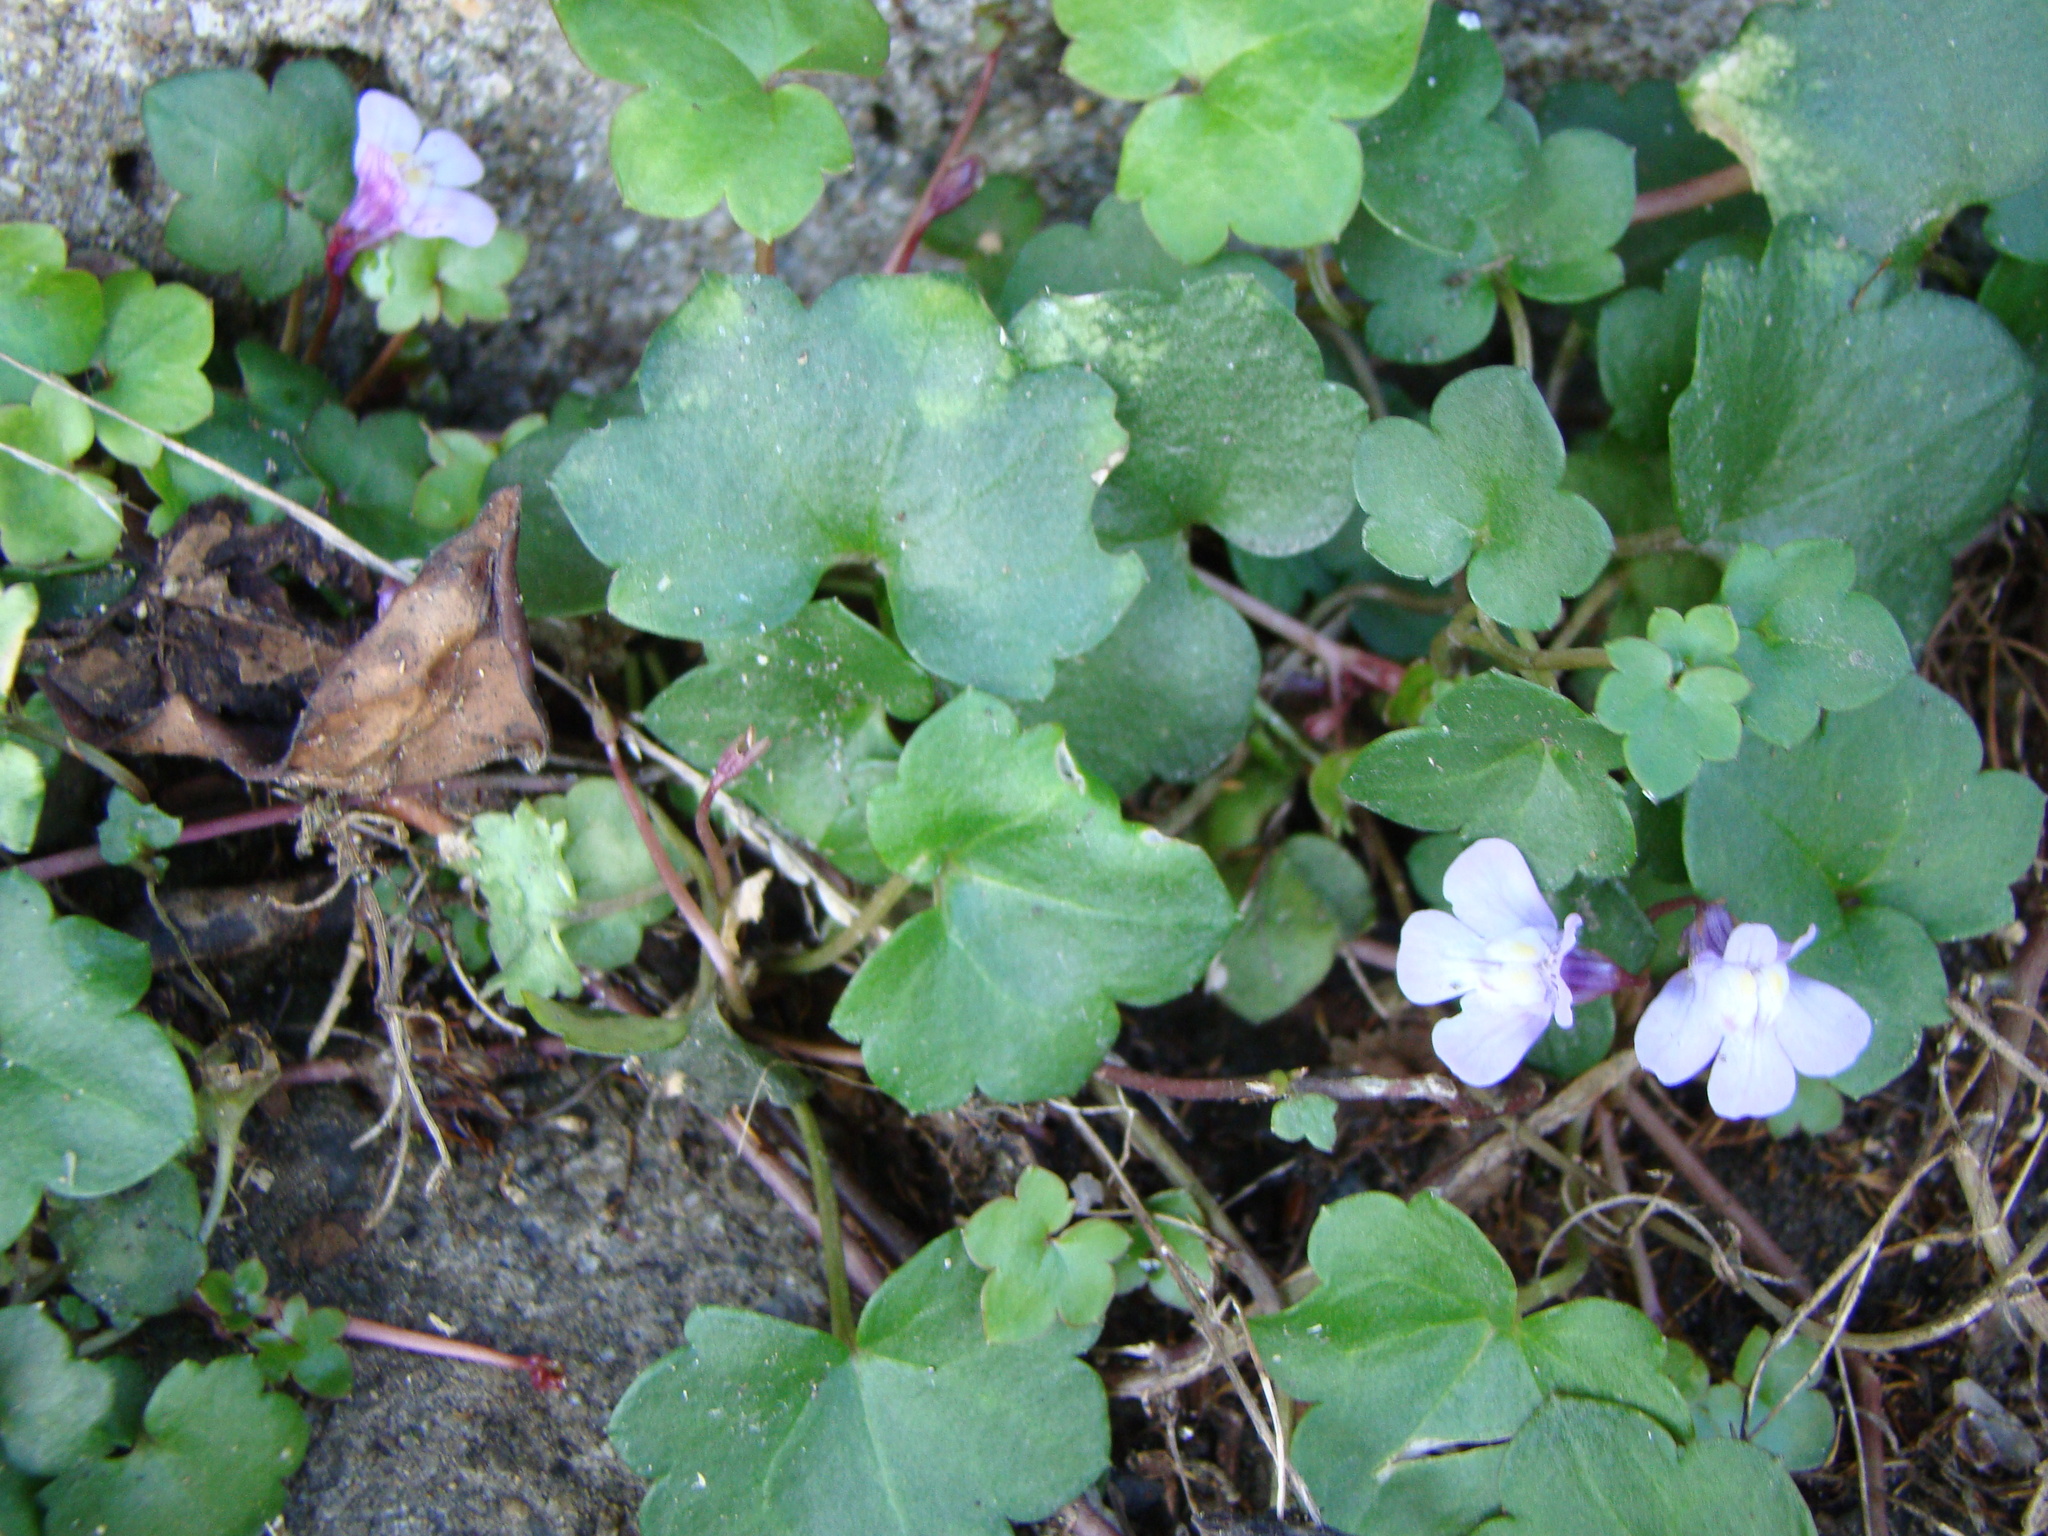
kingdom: Plantae
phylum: Tracheophyta
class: Magnoliopsida
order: Lamiales
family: Plantaginaceae
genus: Cymbalaria
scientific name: Cymbalaria muralis
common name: Ivy-leaved toadflax
